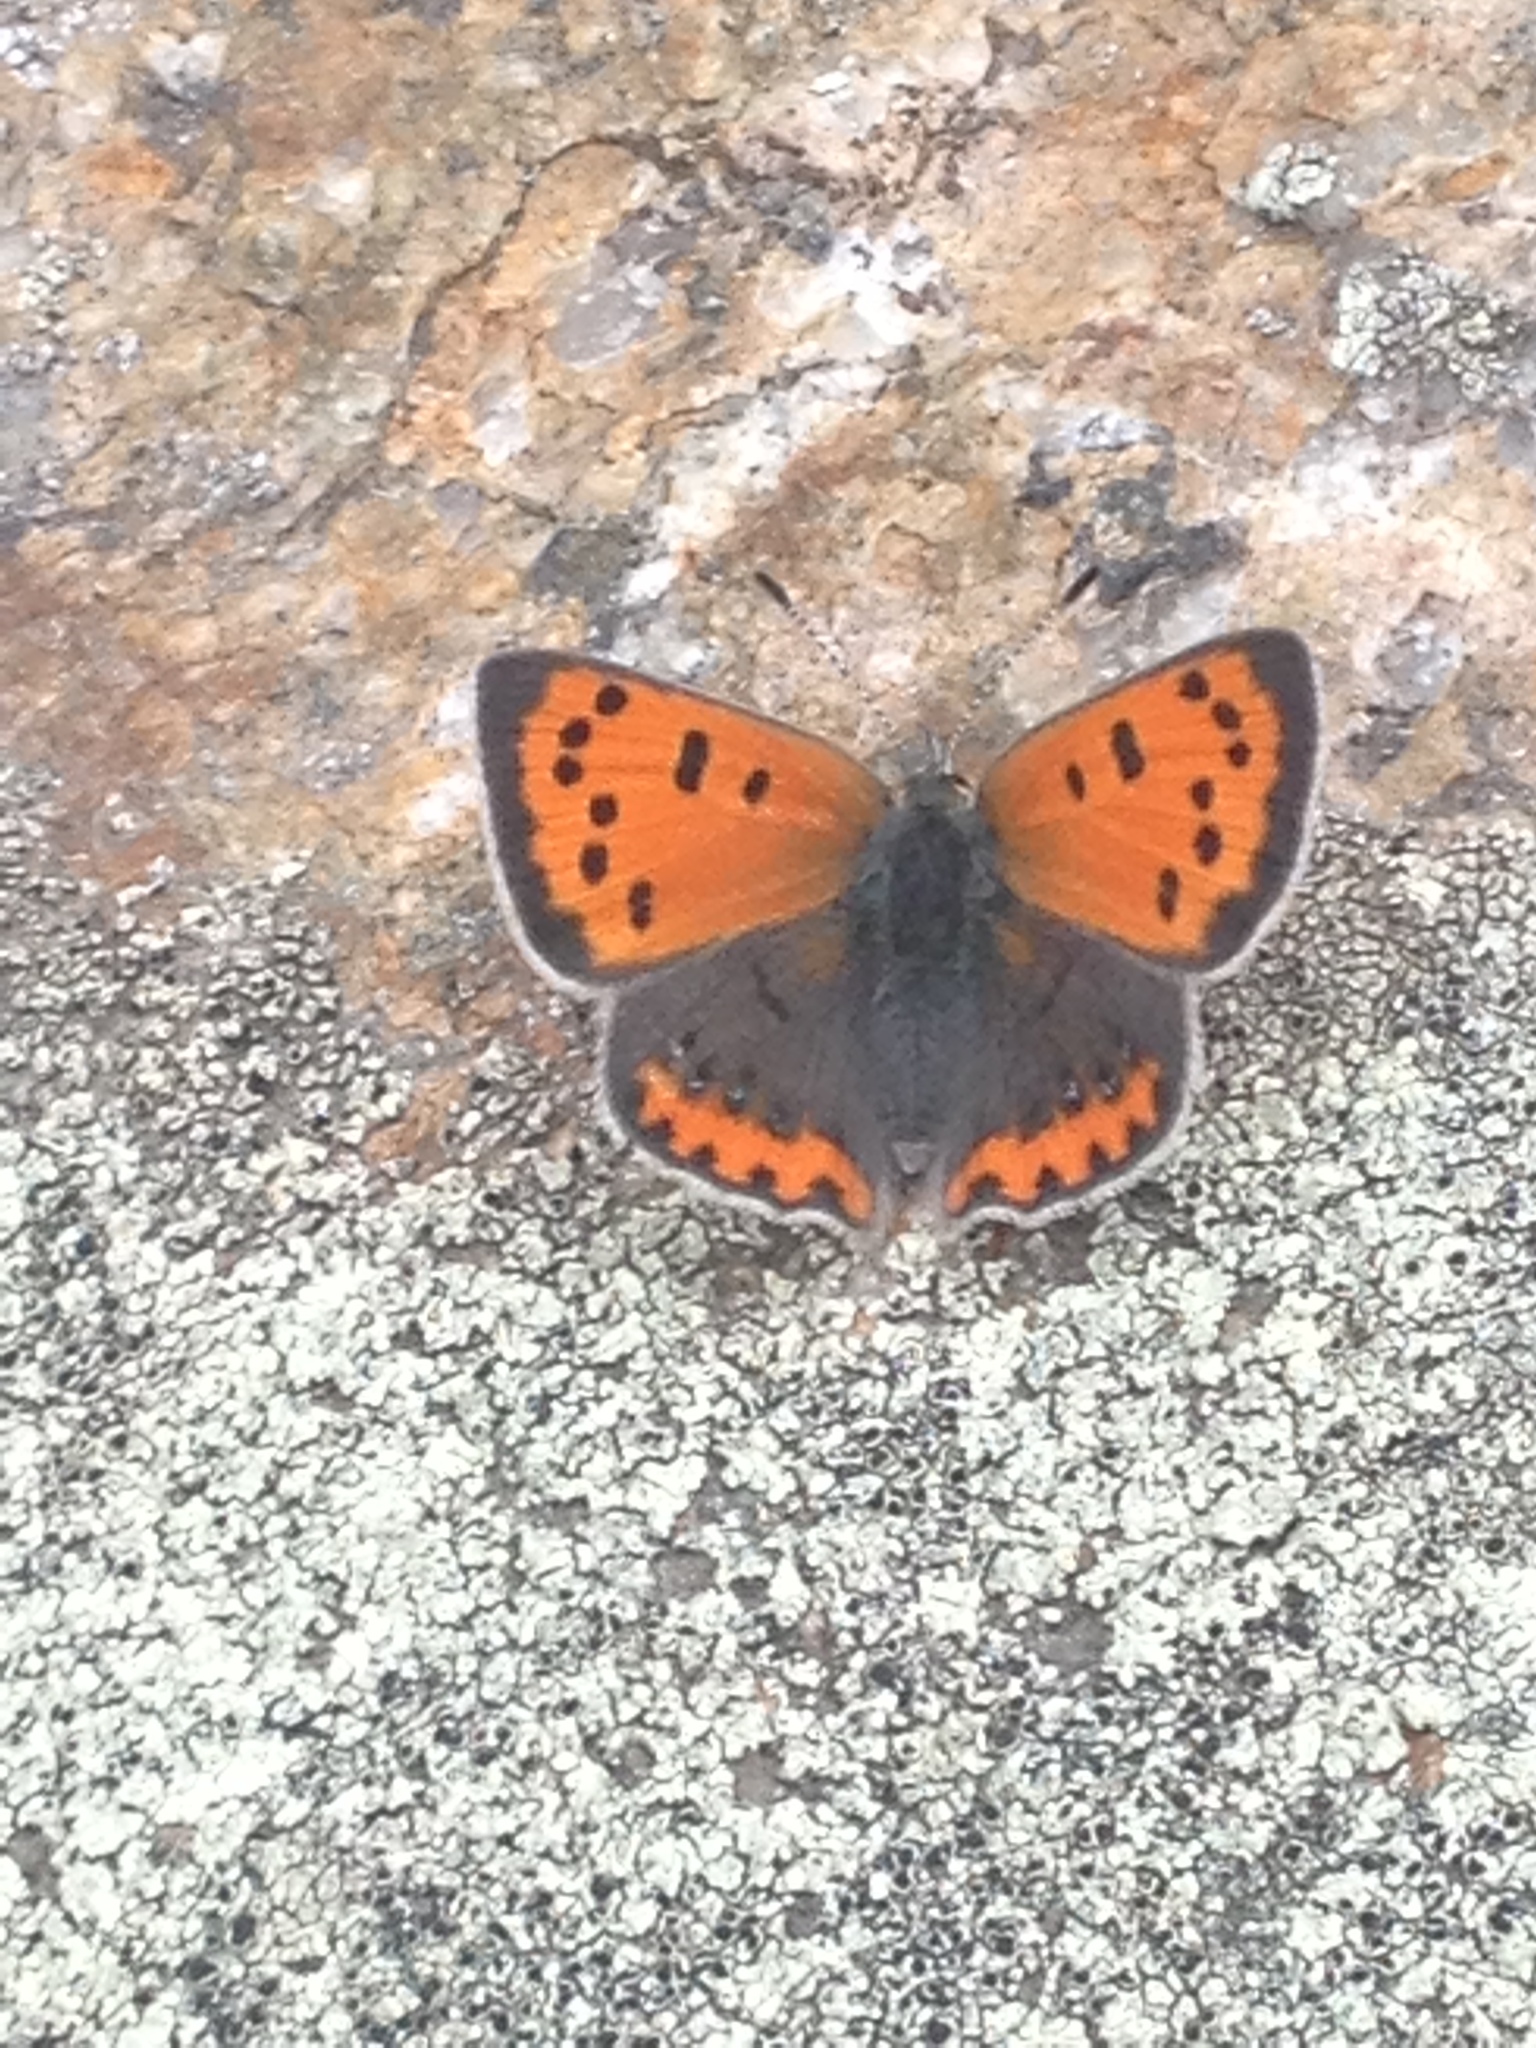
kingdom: Animalia
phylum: Arthropoda
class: Insecta
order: Lepidoptera
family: Lycaenidae
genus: Lycaena
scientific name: Lycaena hypophlaeas
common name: American copper
